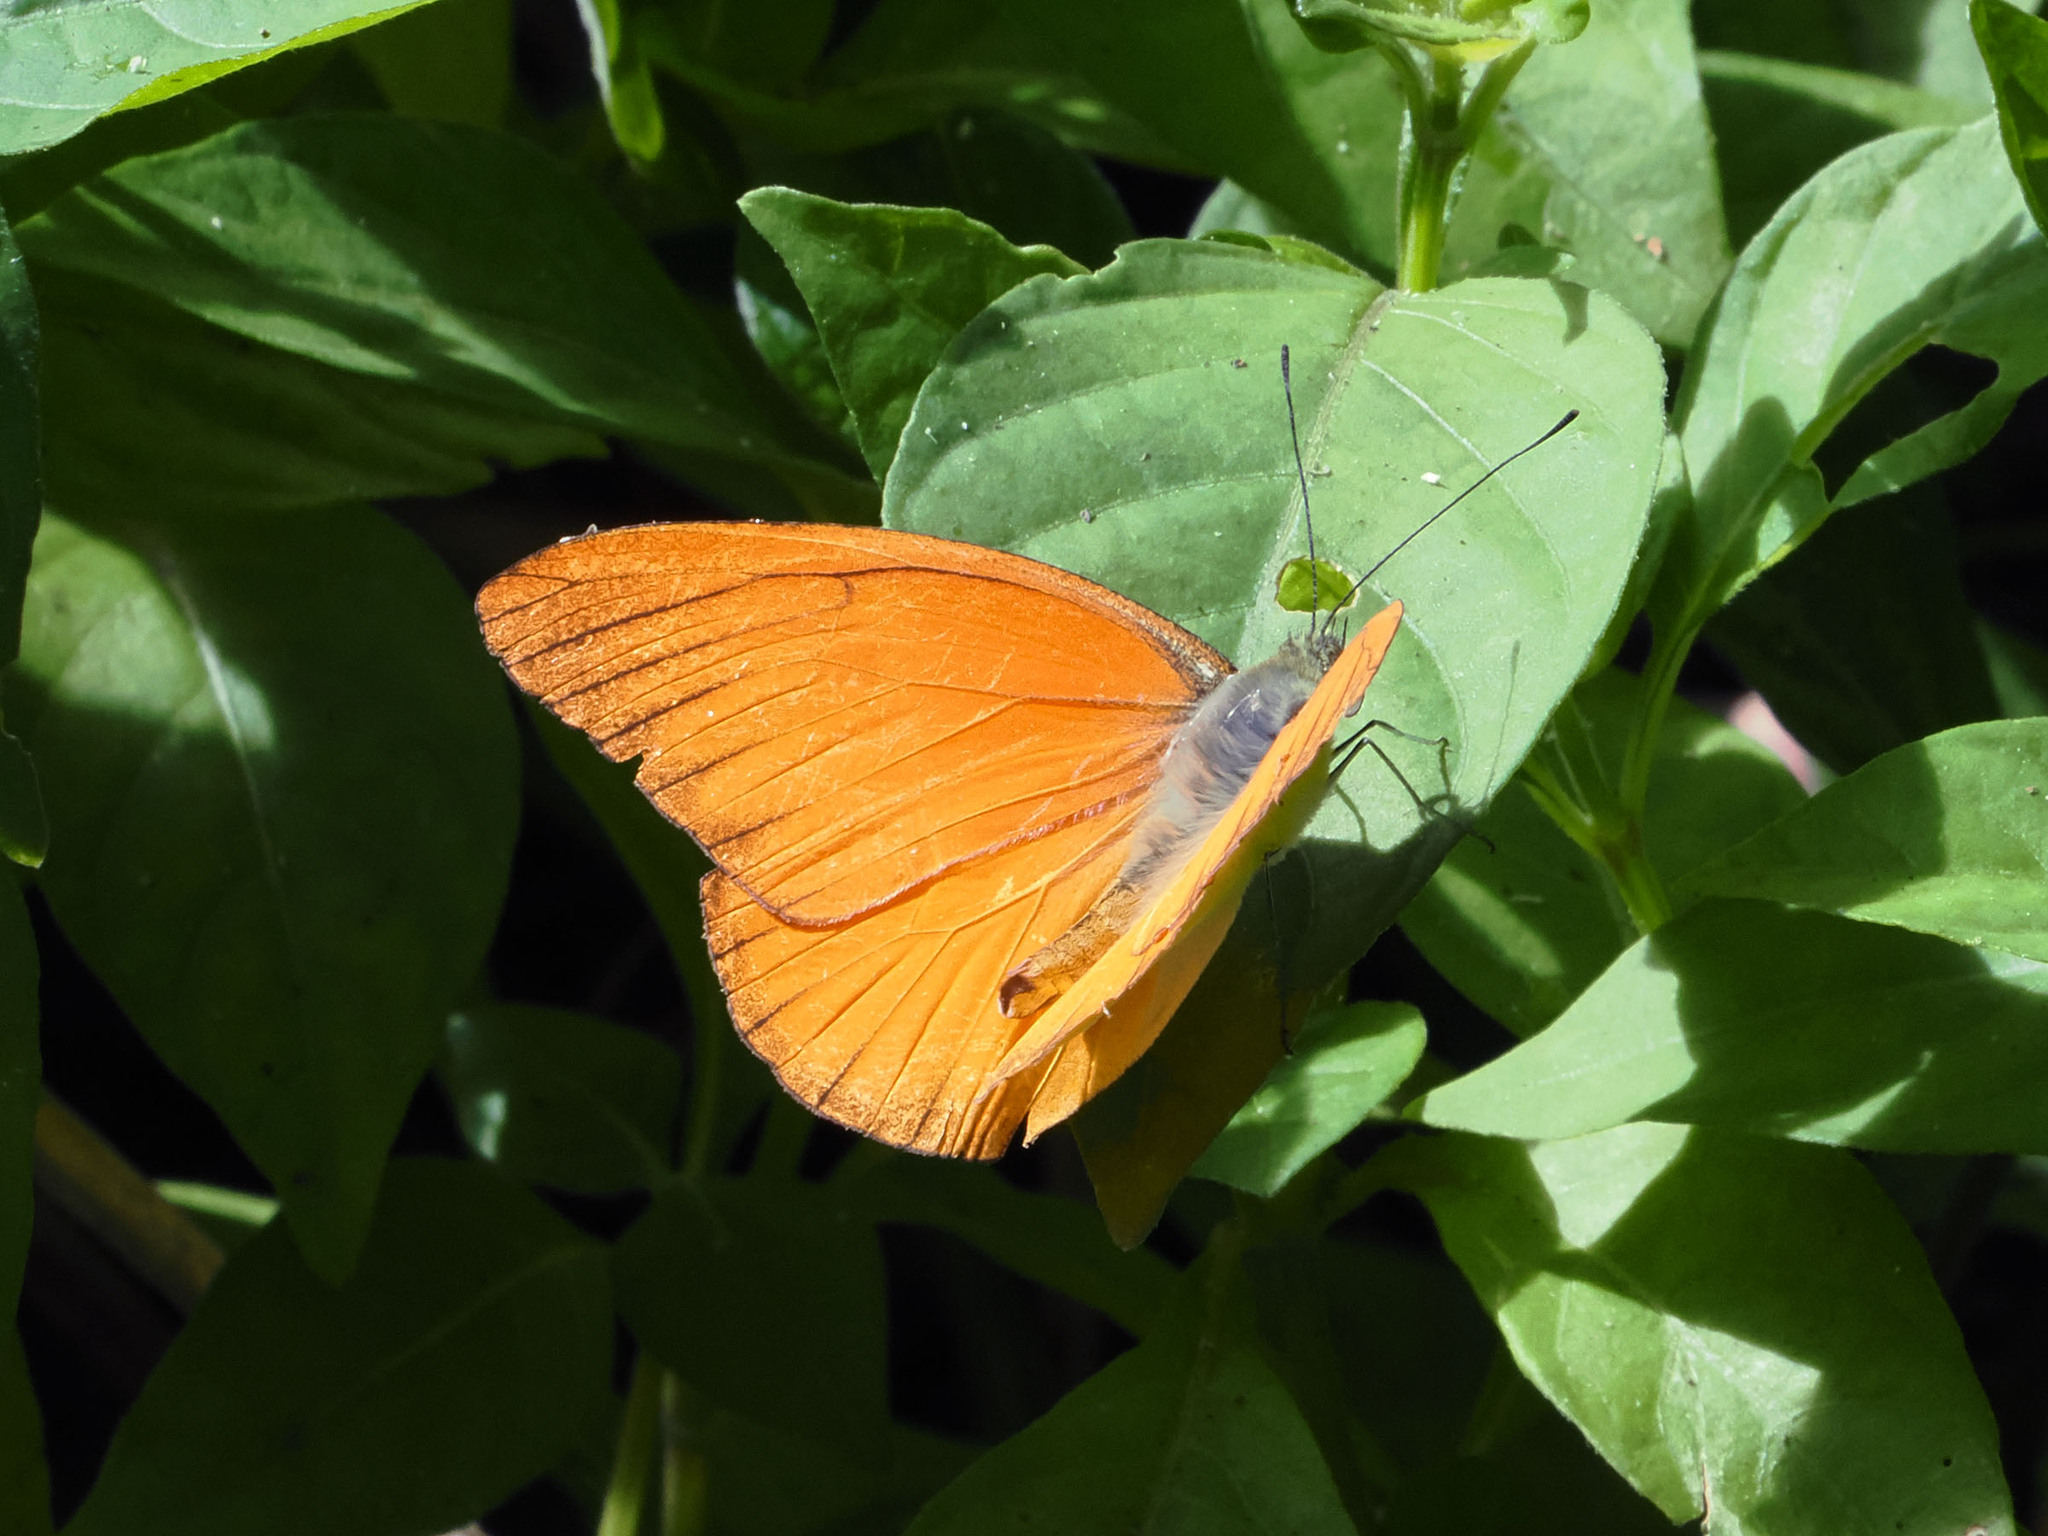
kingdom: Animalia
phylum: Arthropoda
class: Insecta
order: Lepidoptera
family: Pieridae
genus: Appias
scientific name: Appias nero
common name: Orange albatross
